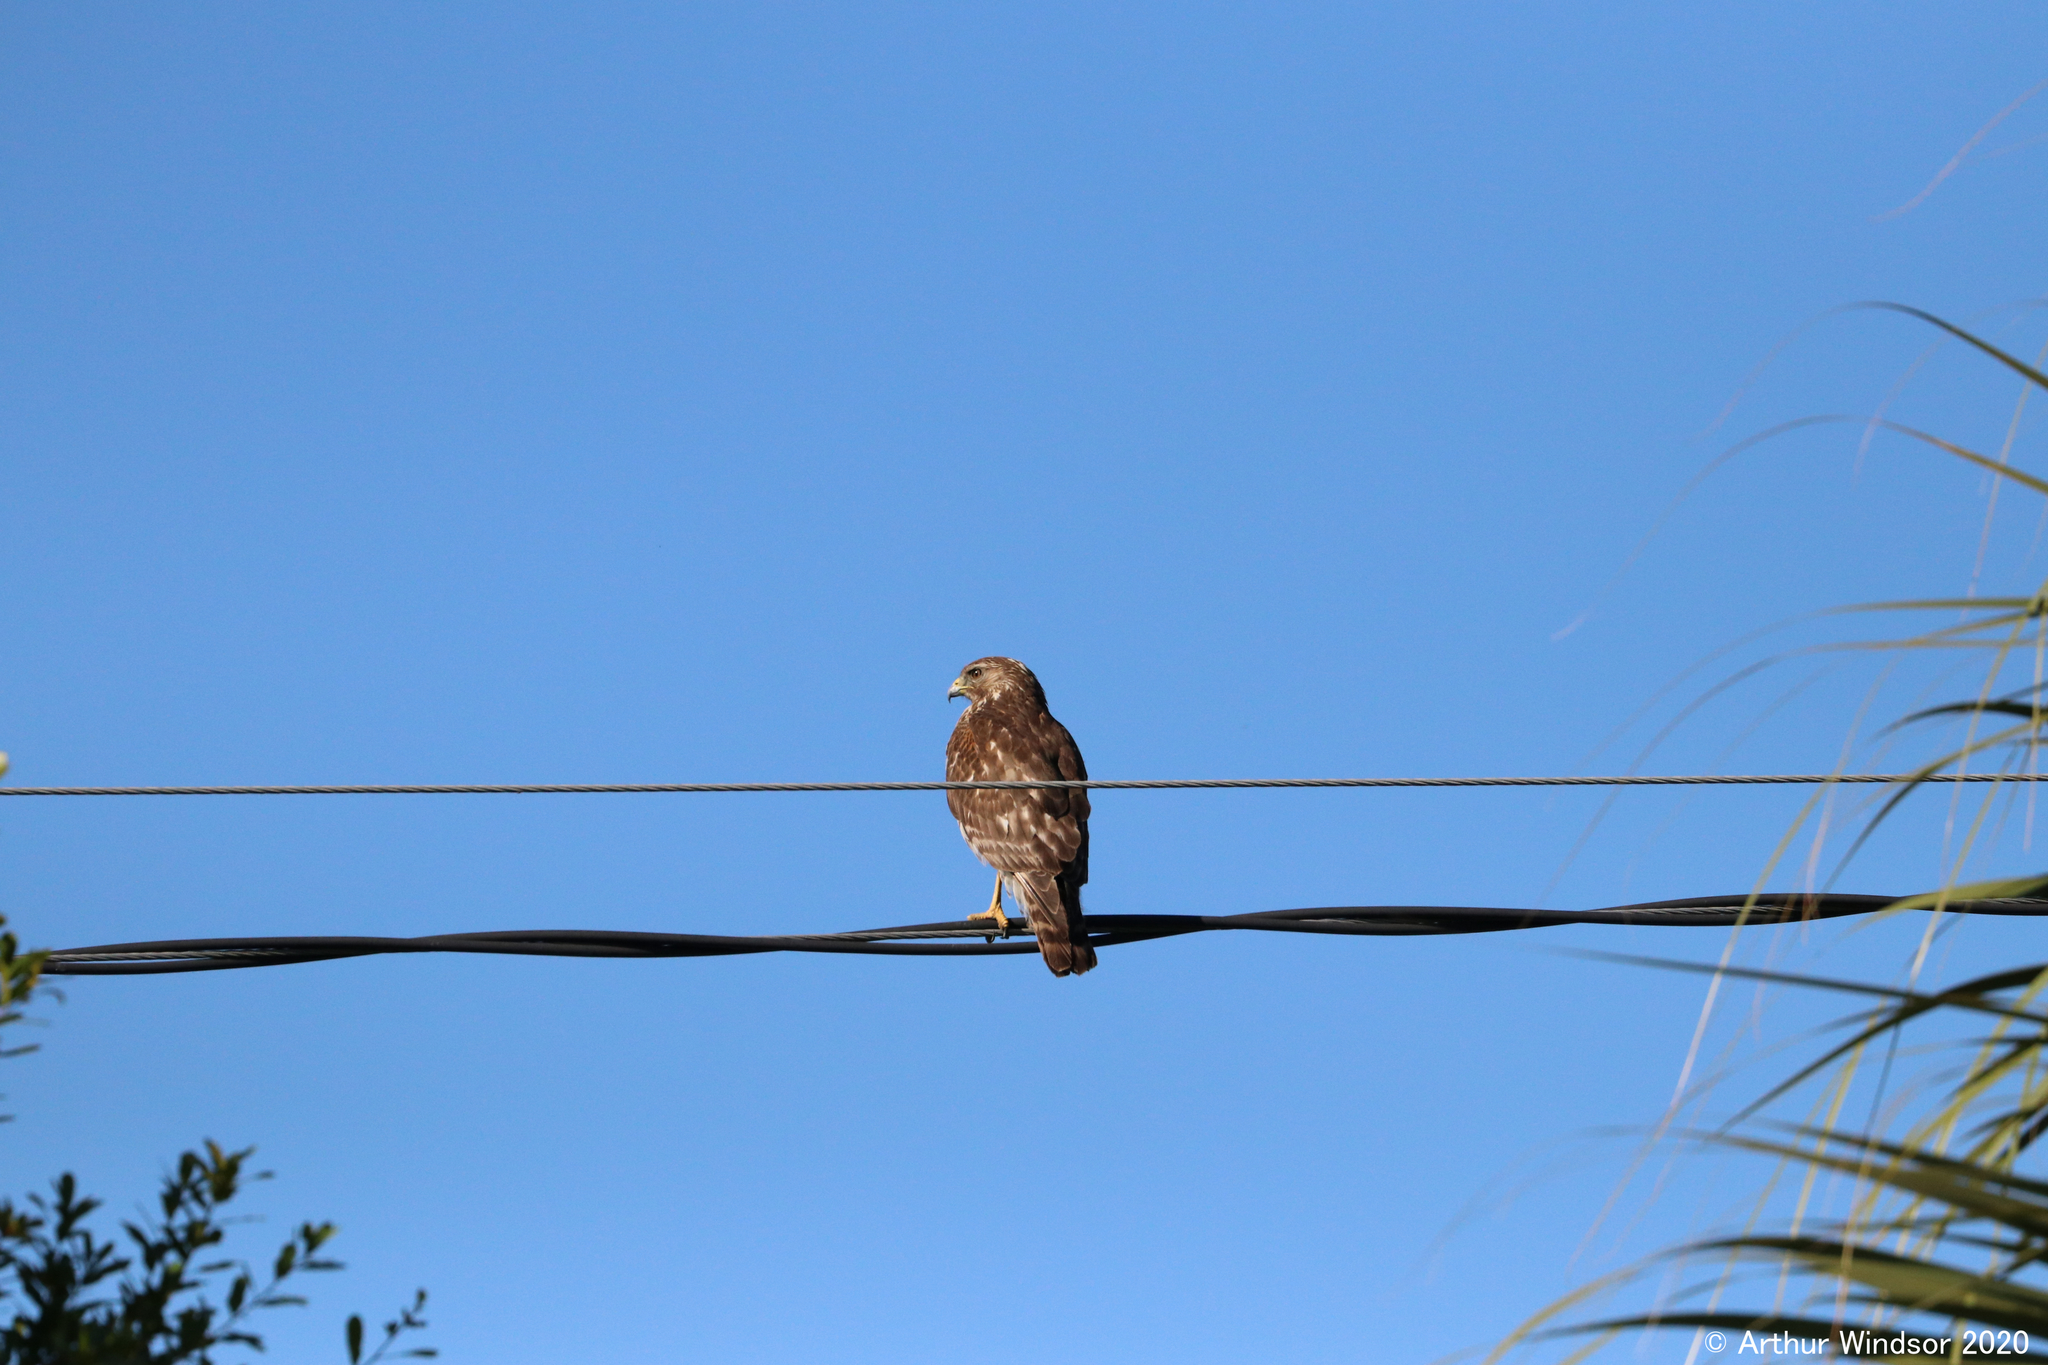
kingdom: Animalia
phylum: Chordata
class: Aves
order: Accipitriformes
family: Accipitridae
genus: Buteo
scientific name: Buteo lineatus
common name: Red-shouldered hawk
